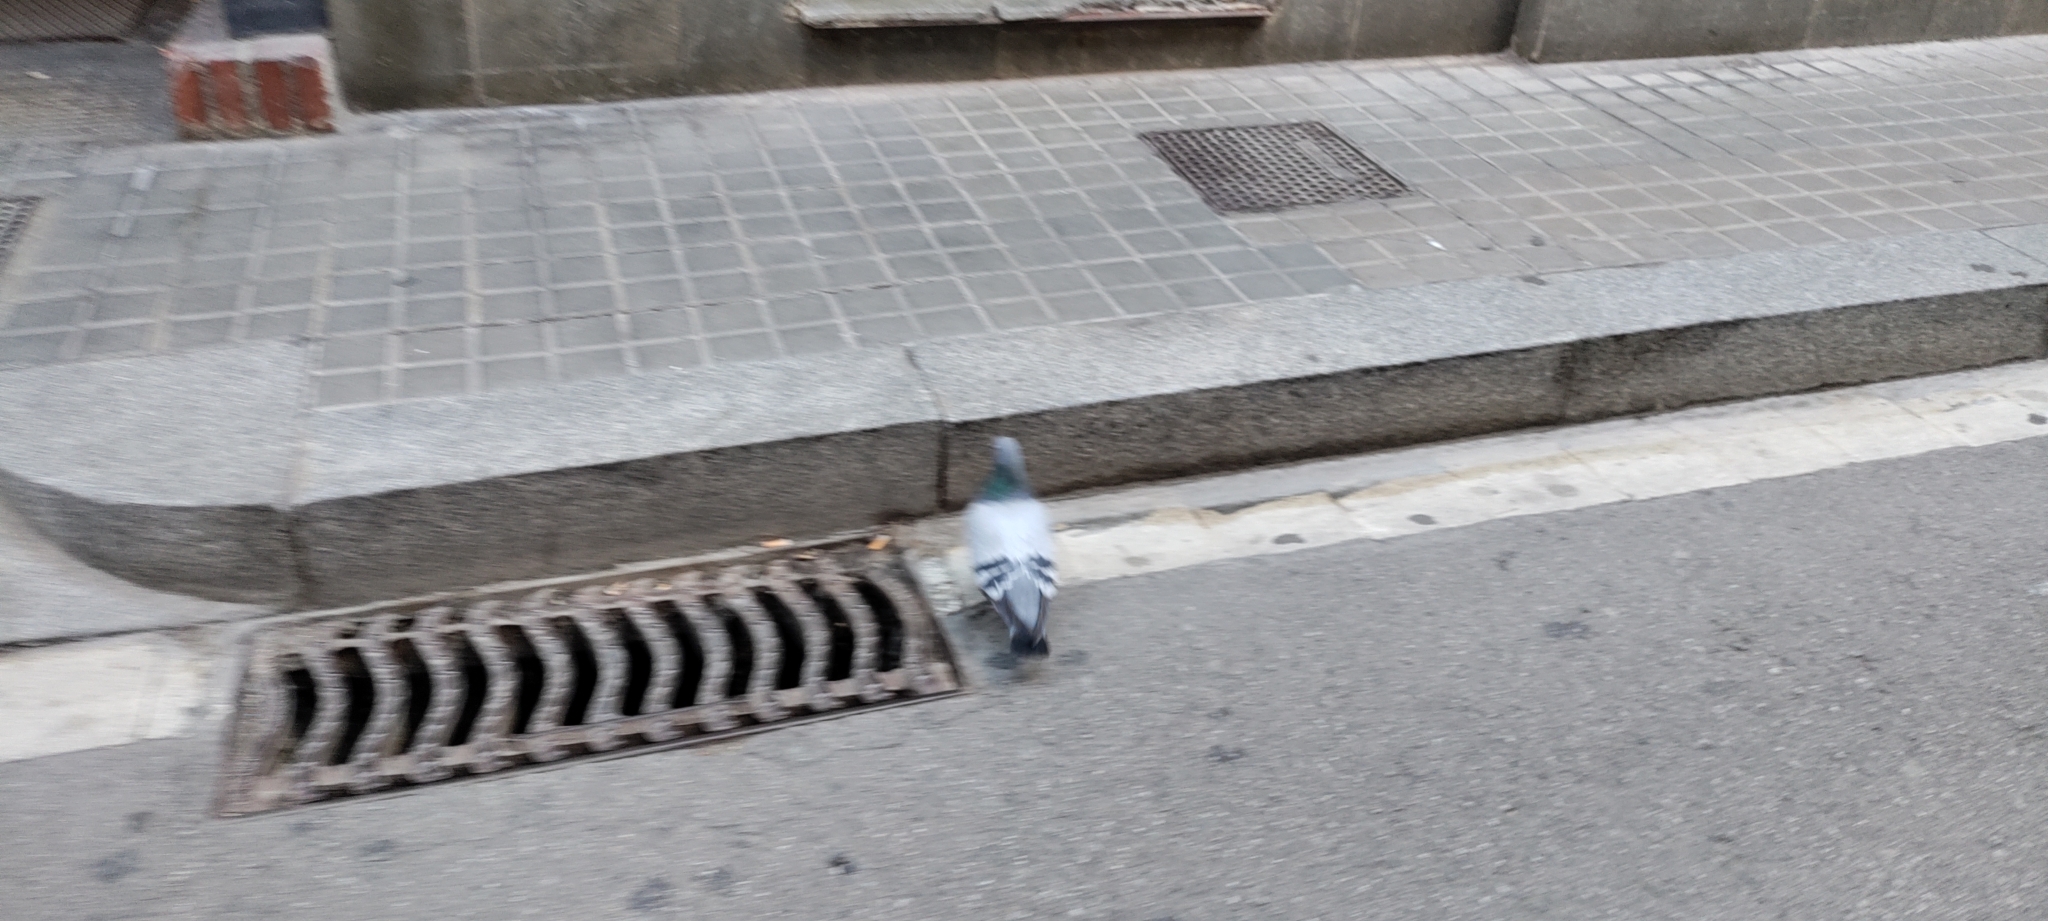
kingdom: Animalia
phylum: Chordata
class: Aves
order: Columbiformes
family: Columbidae
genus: Columba
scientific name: Columba livia
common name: Rock pigeon
